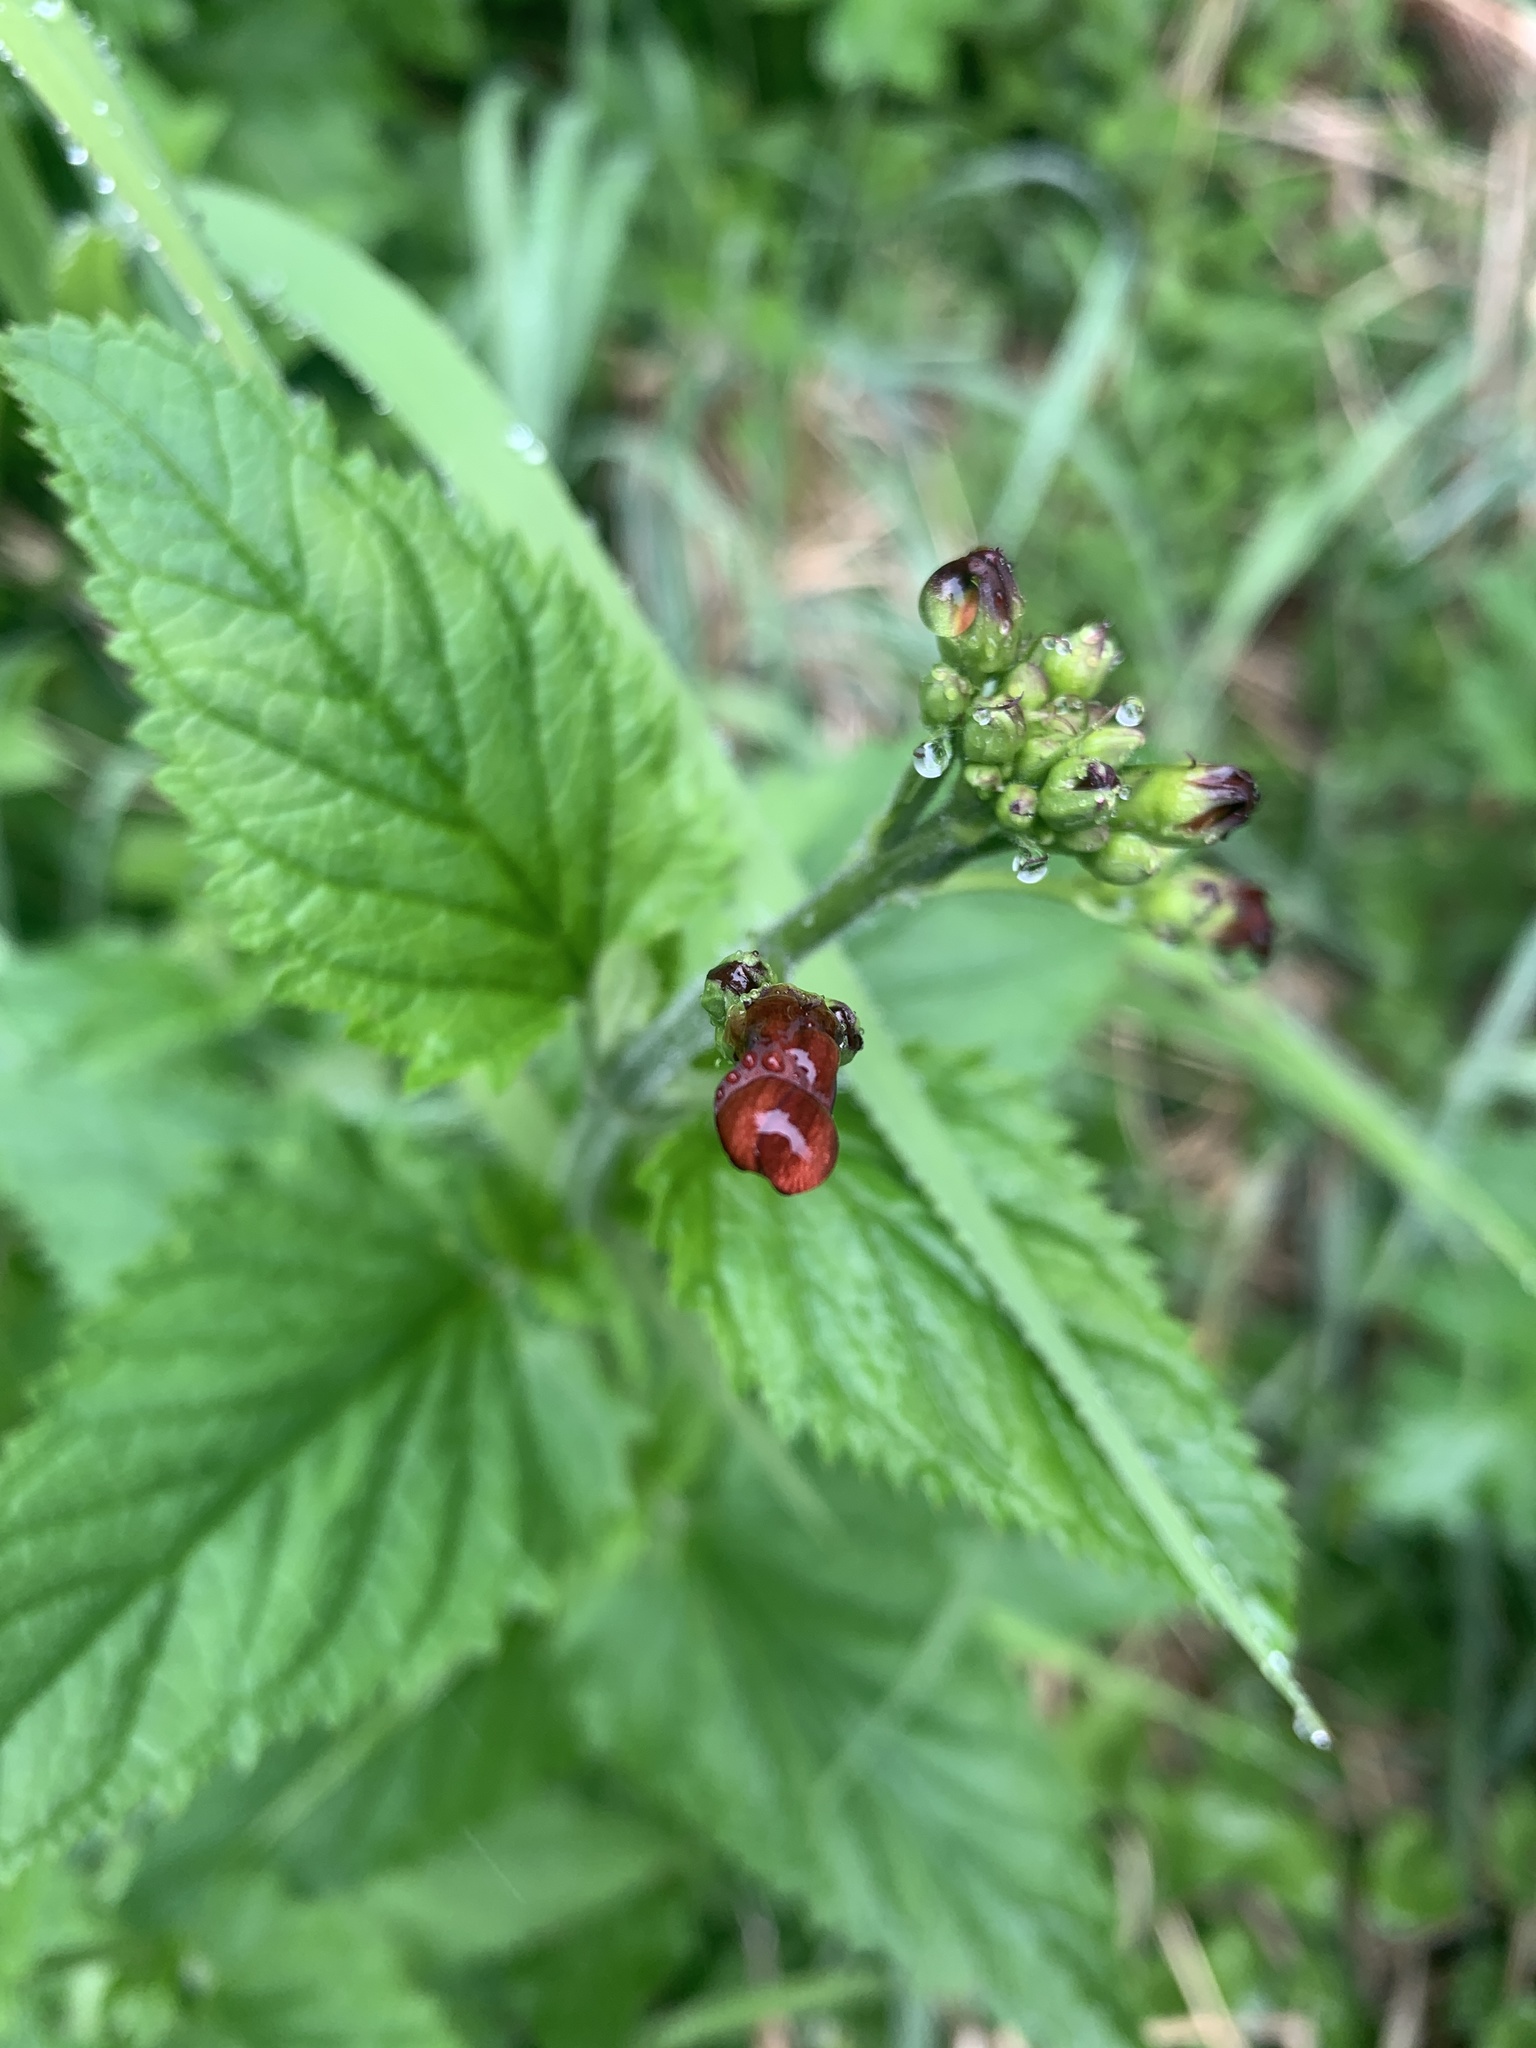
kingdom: Plantae
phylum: Tracheophyta
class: Magnoliopsida
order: Lamiales
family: Scrophulariaceae
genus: Scrophularia
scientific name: Scrophularia californica
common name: California figwort
